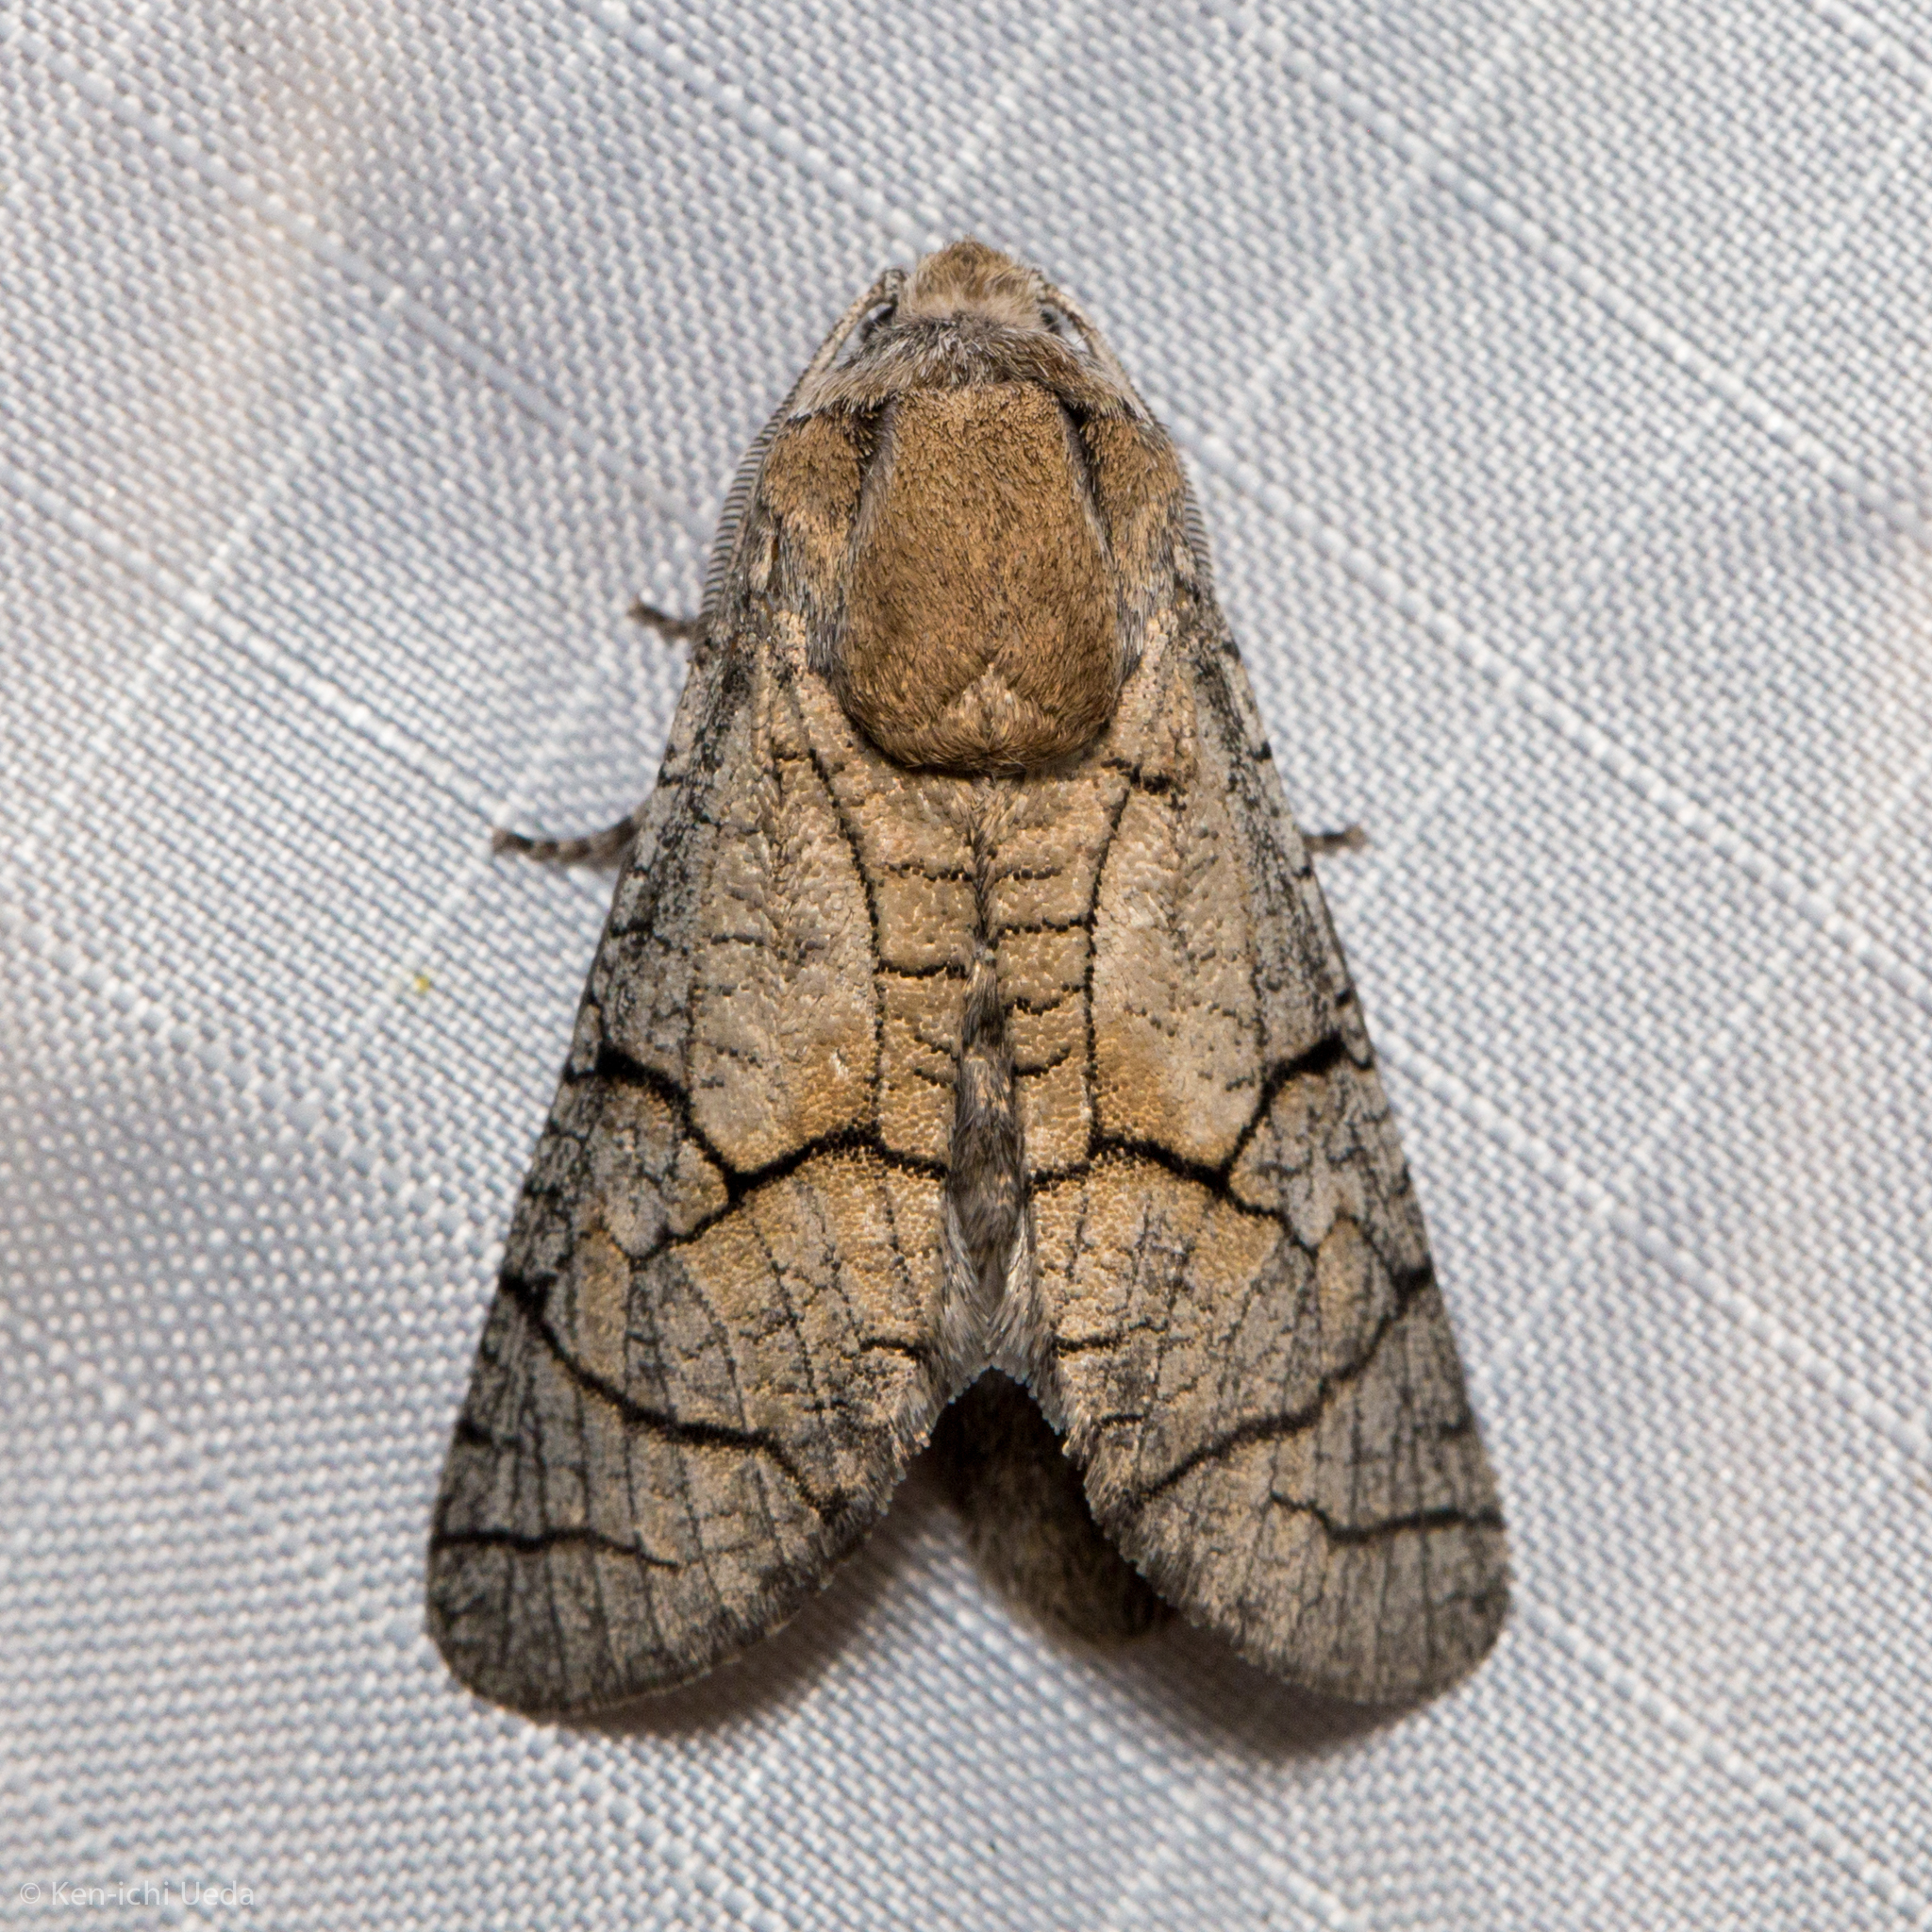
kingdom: Animalia
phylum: Arthropoda
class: Insecta
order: Lepidoptera
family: Cossidae
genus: Toronia
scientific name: Toronia
